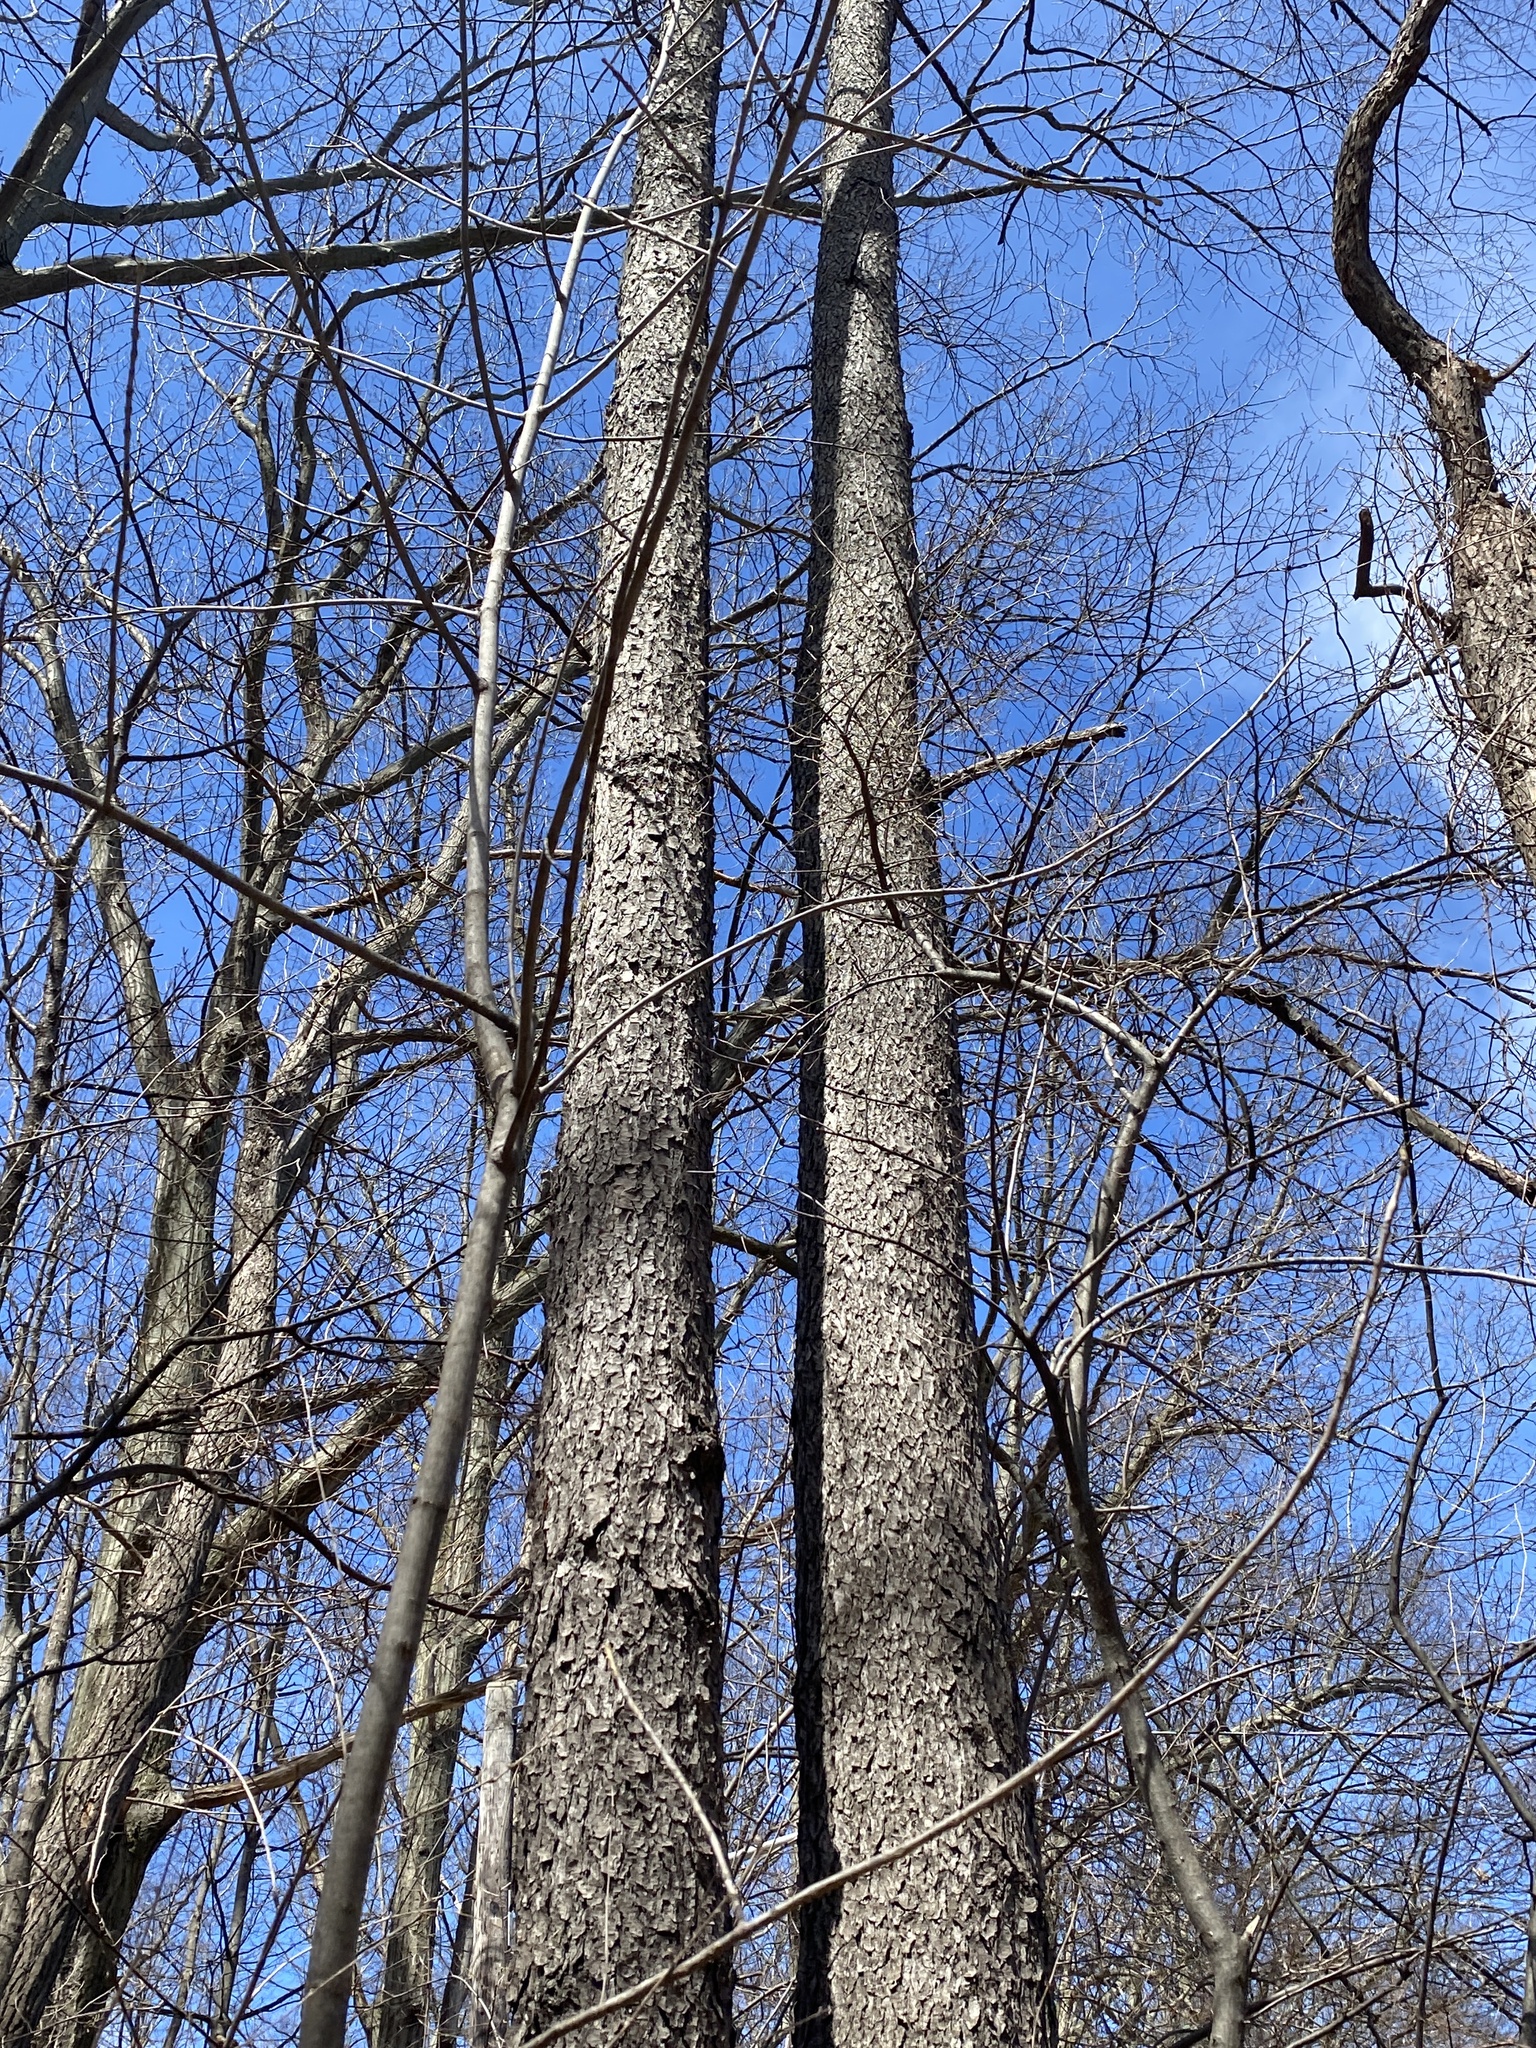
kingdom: Plantae
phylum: Tracheophyta
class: Magnoliopsida
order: Rosales
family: Rosaceae
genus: Prunus
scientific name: Prunus serotina
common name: Black cherry
